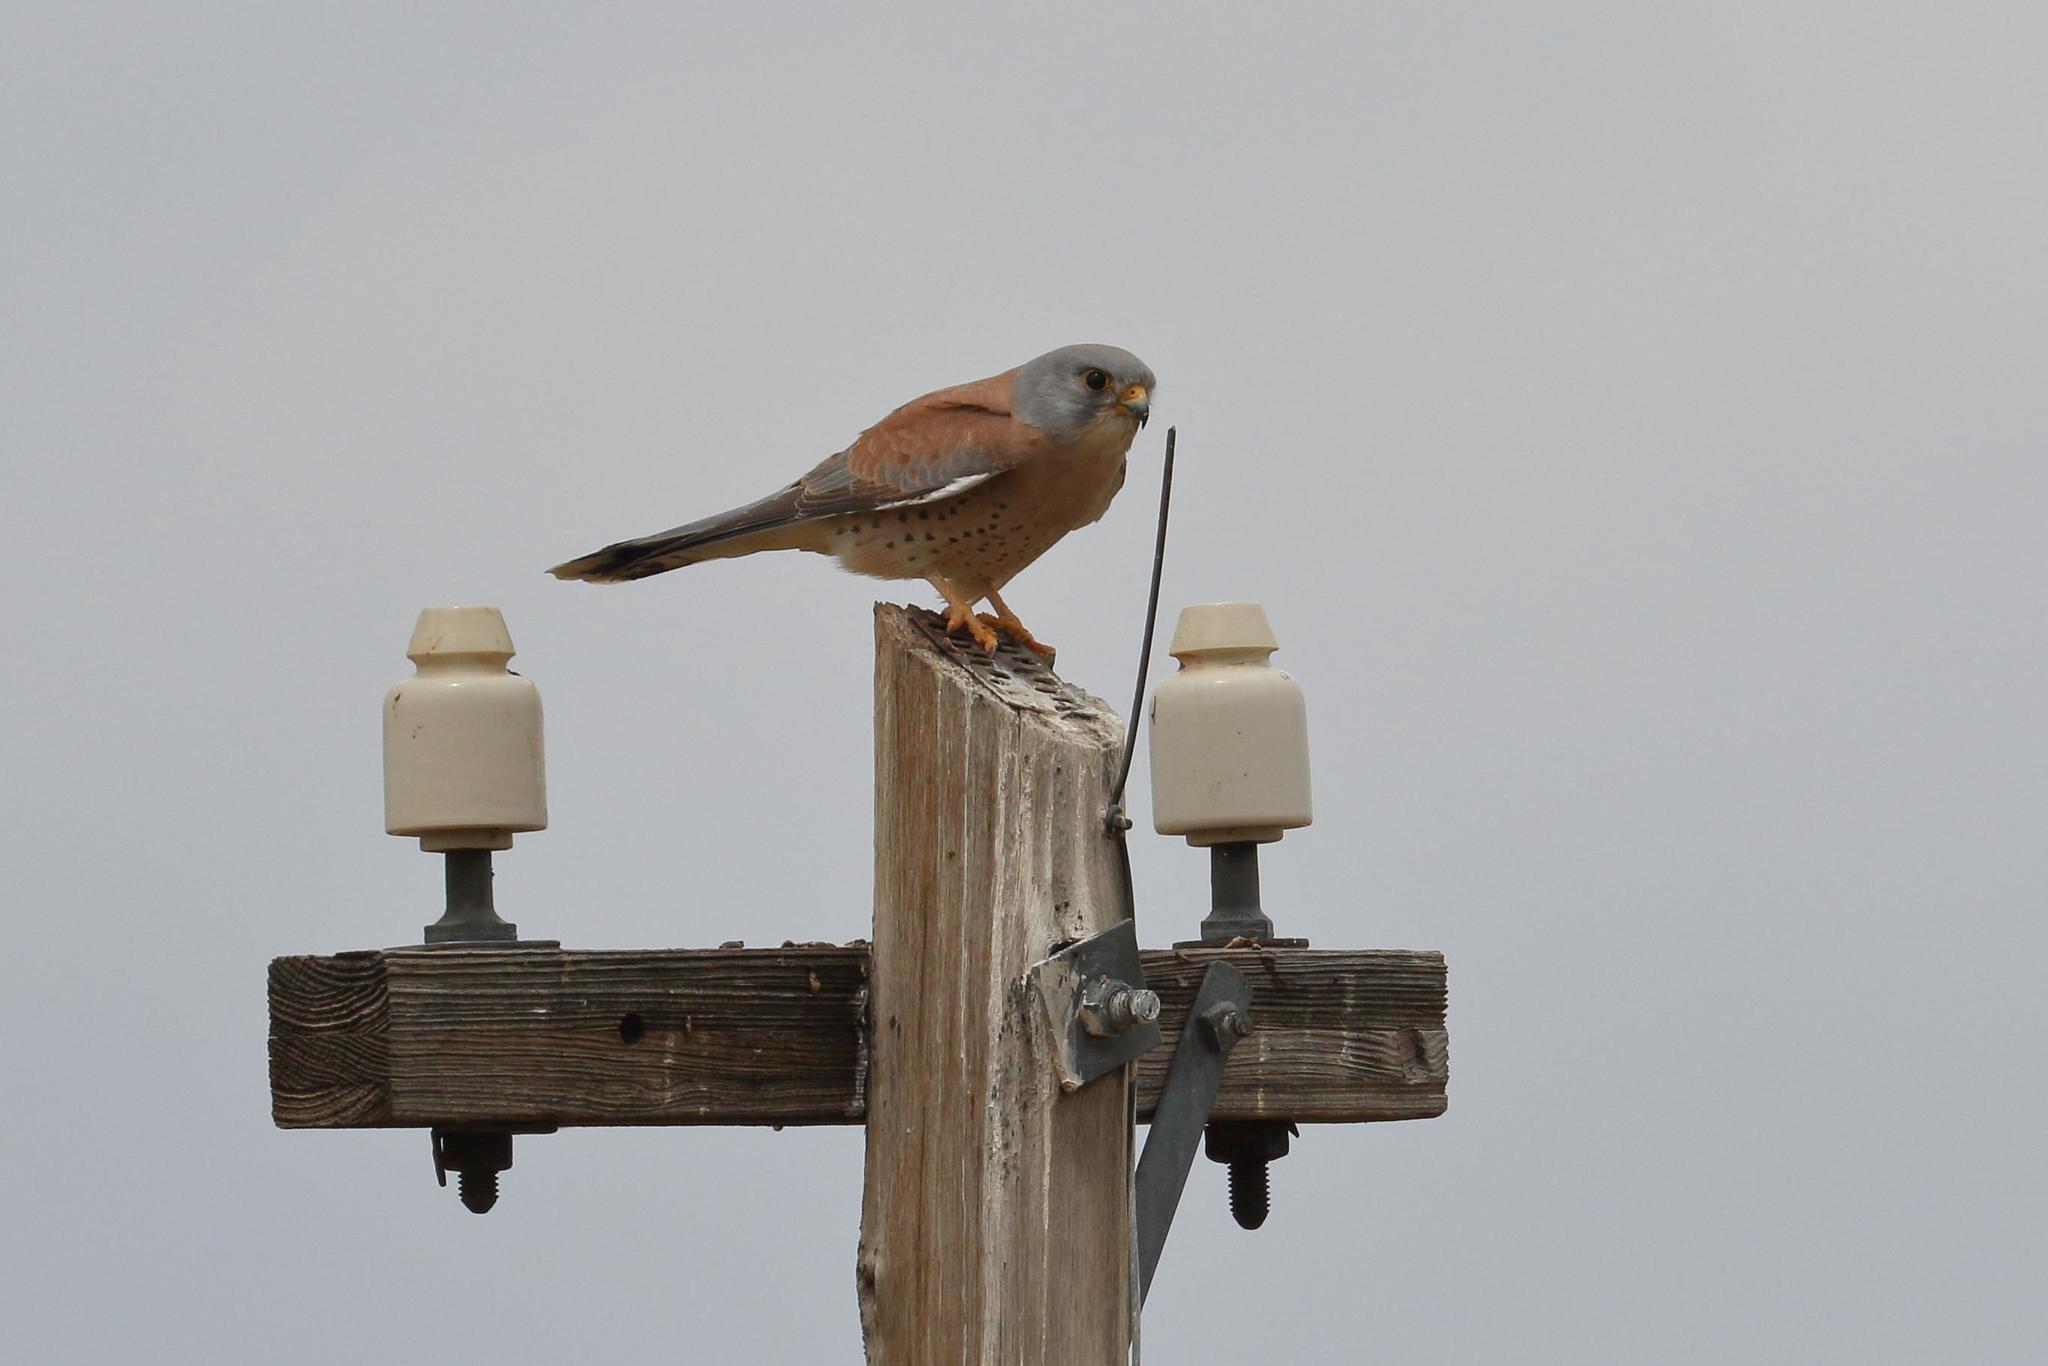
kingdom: Animalia
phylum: Chordata
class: Aves
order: Falconiformes
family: Falconidae
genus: Falco
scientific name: Falco naumanni
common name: Lesser kestrel
